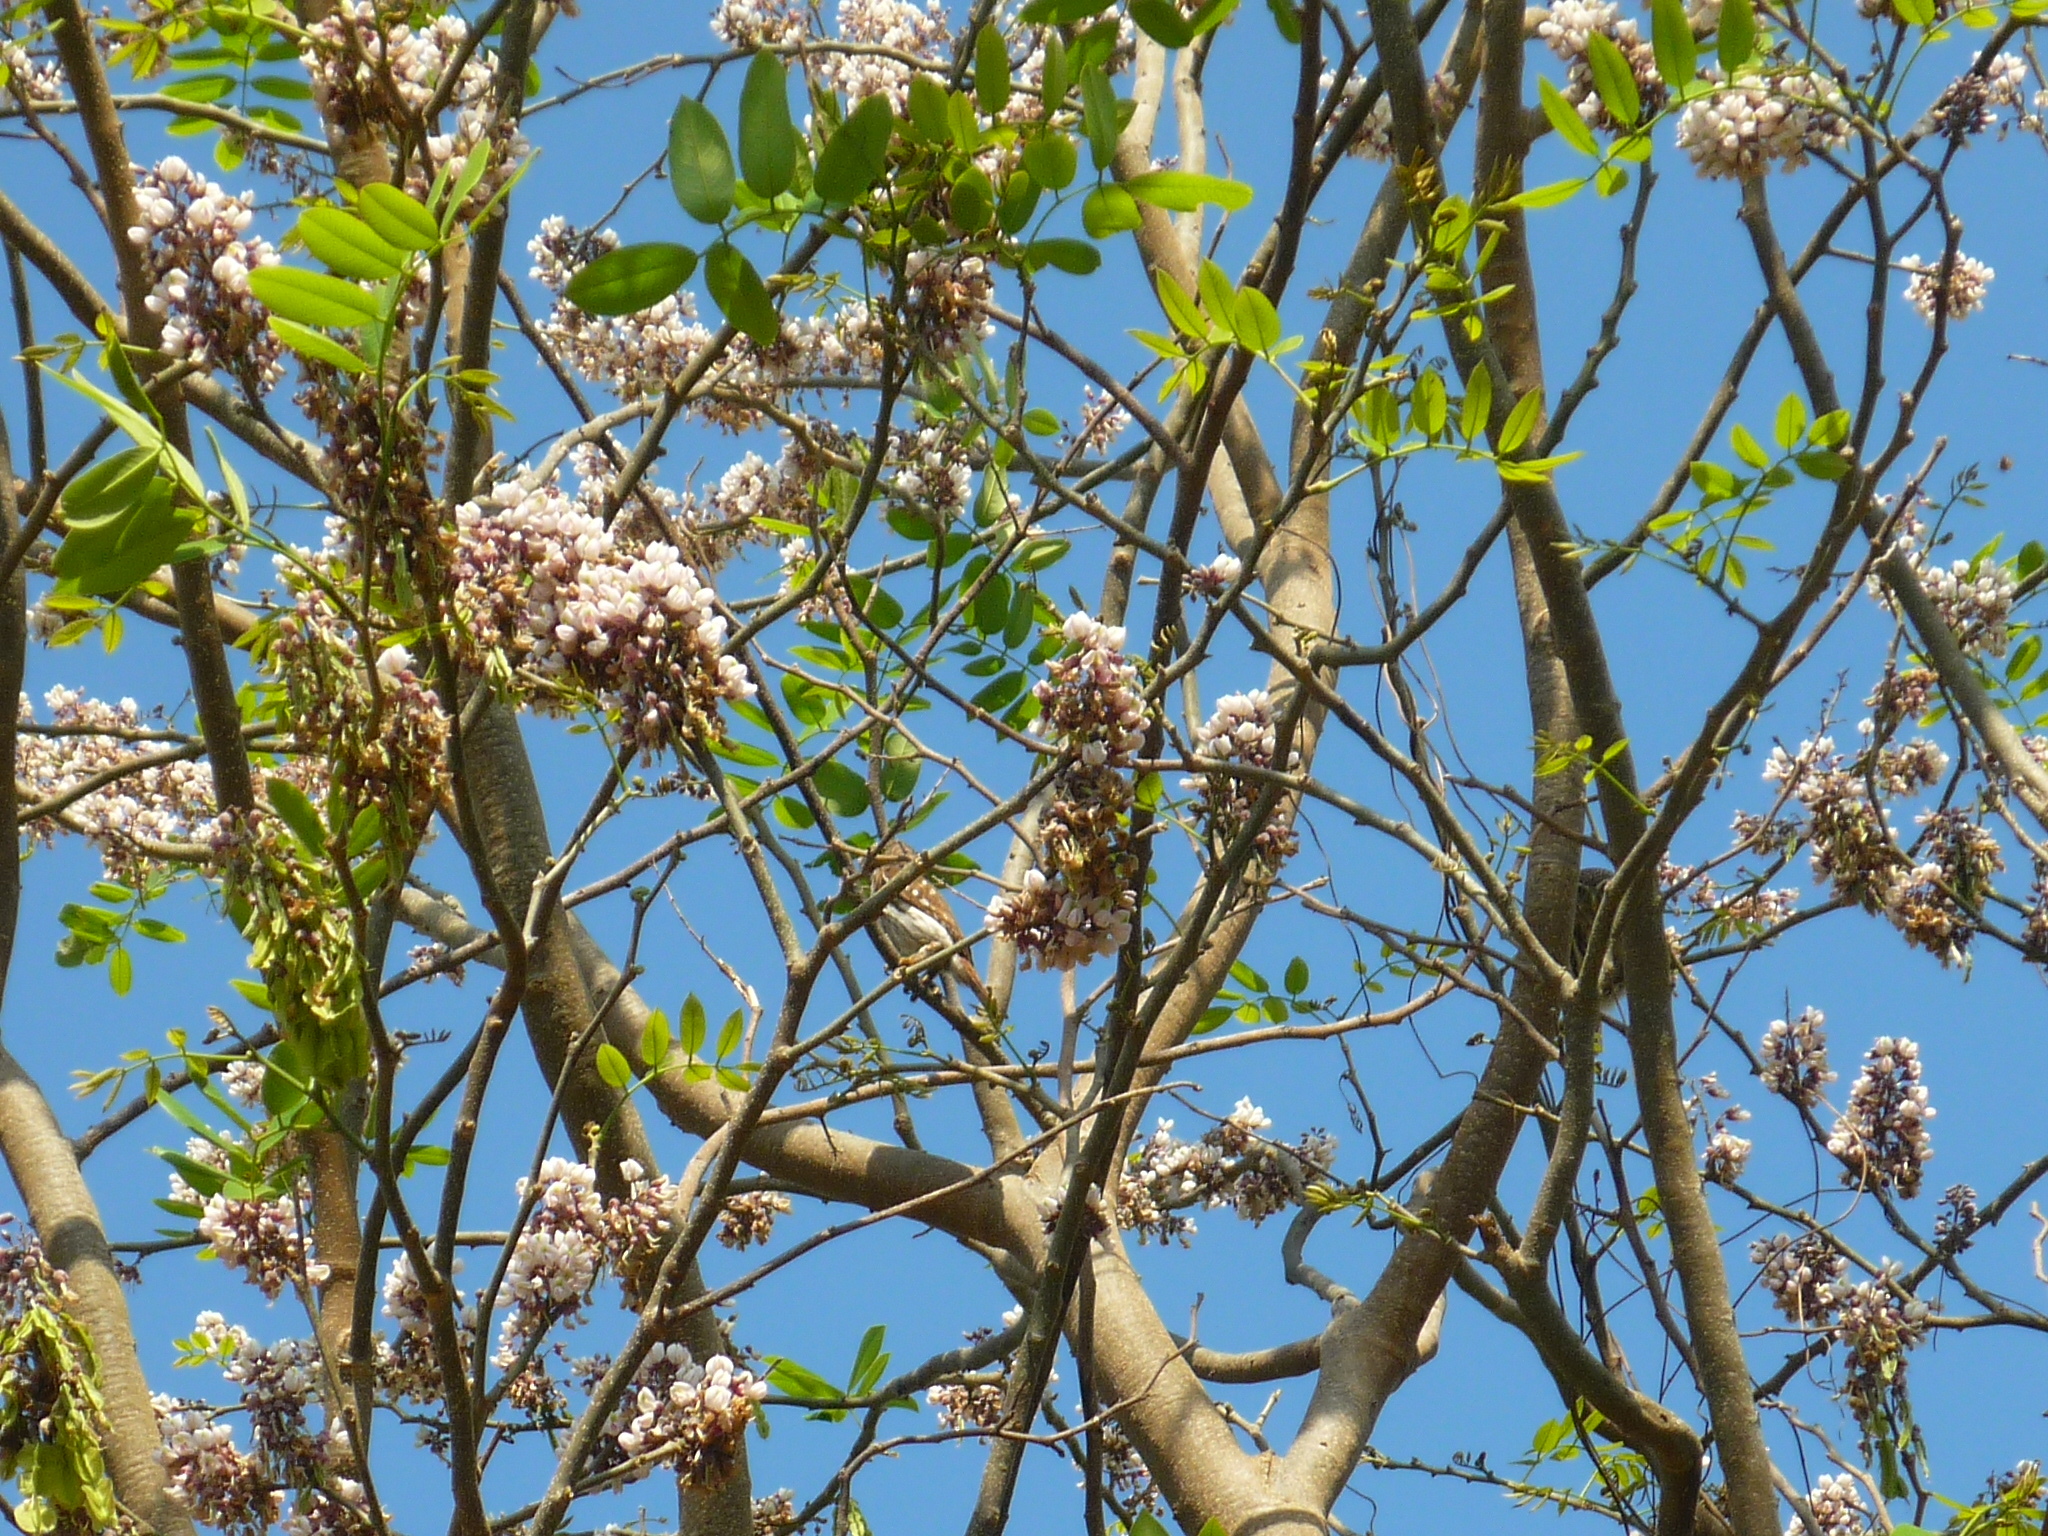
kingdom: Plantae
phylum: Tracheophyta
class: Magnoliopsida
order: Fabales
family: Fabaceae
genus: Piscidia
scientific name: Piscidia piscipula
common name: Florida fishpoison tree
